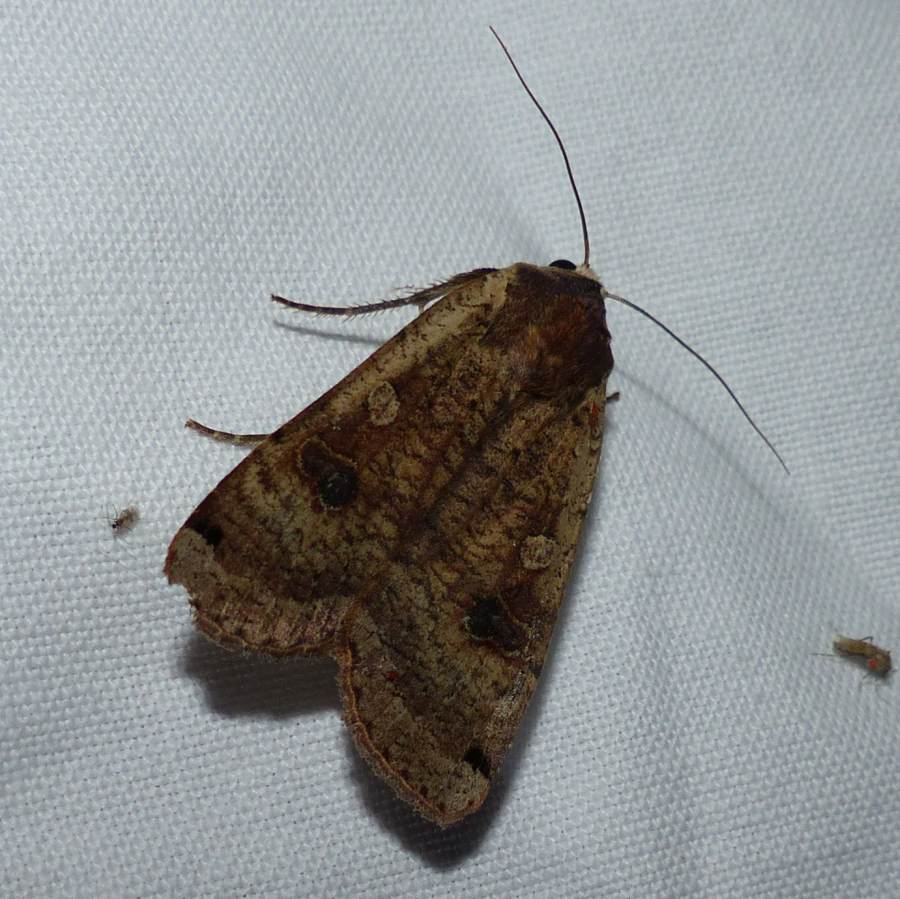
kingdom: Animalia
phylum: Arthropoda
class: Insecta
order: Lepidoptera
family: Noctuidae
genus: Noctua
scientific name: Noctua pronuba
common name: Large yellow underwing
